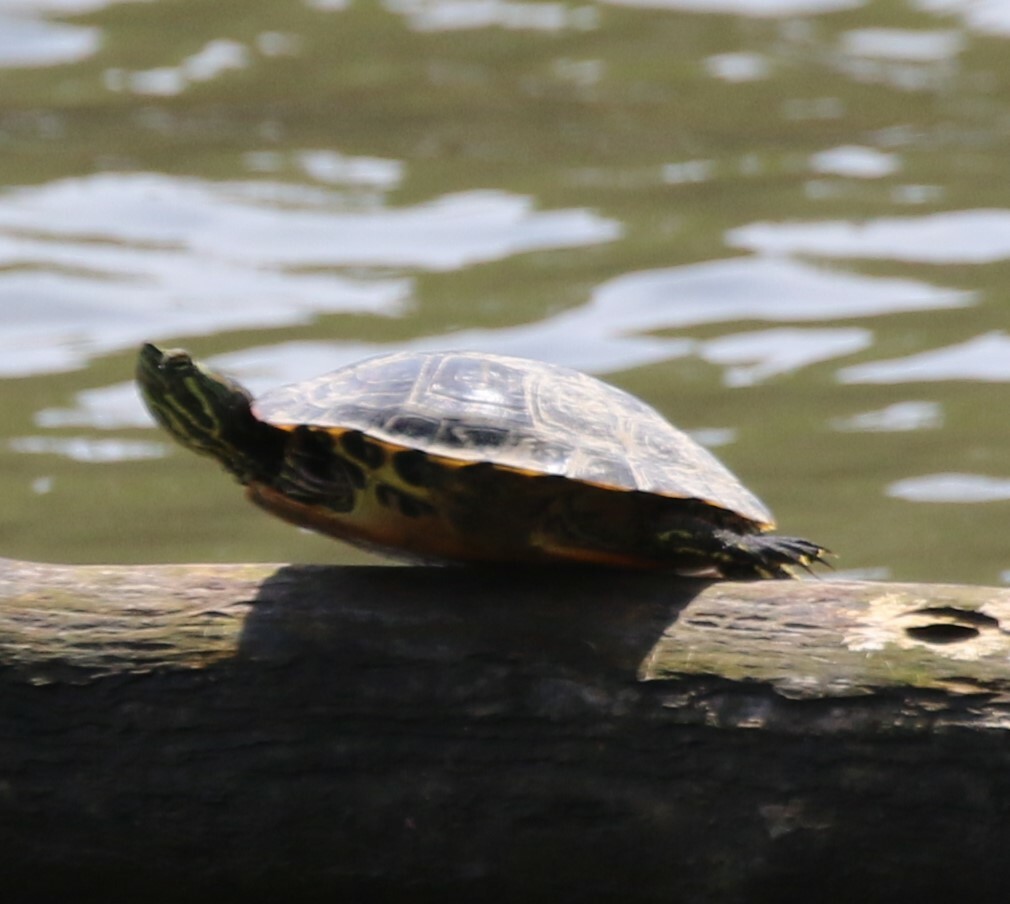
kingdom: Animalia
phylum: Chordata
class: Testudines
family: Emydidae
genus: Trachemys
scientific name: Trachemys scripta
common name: Slider
